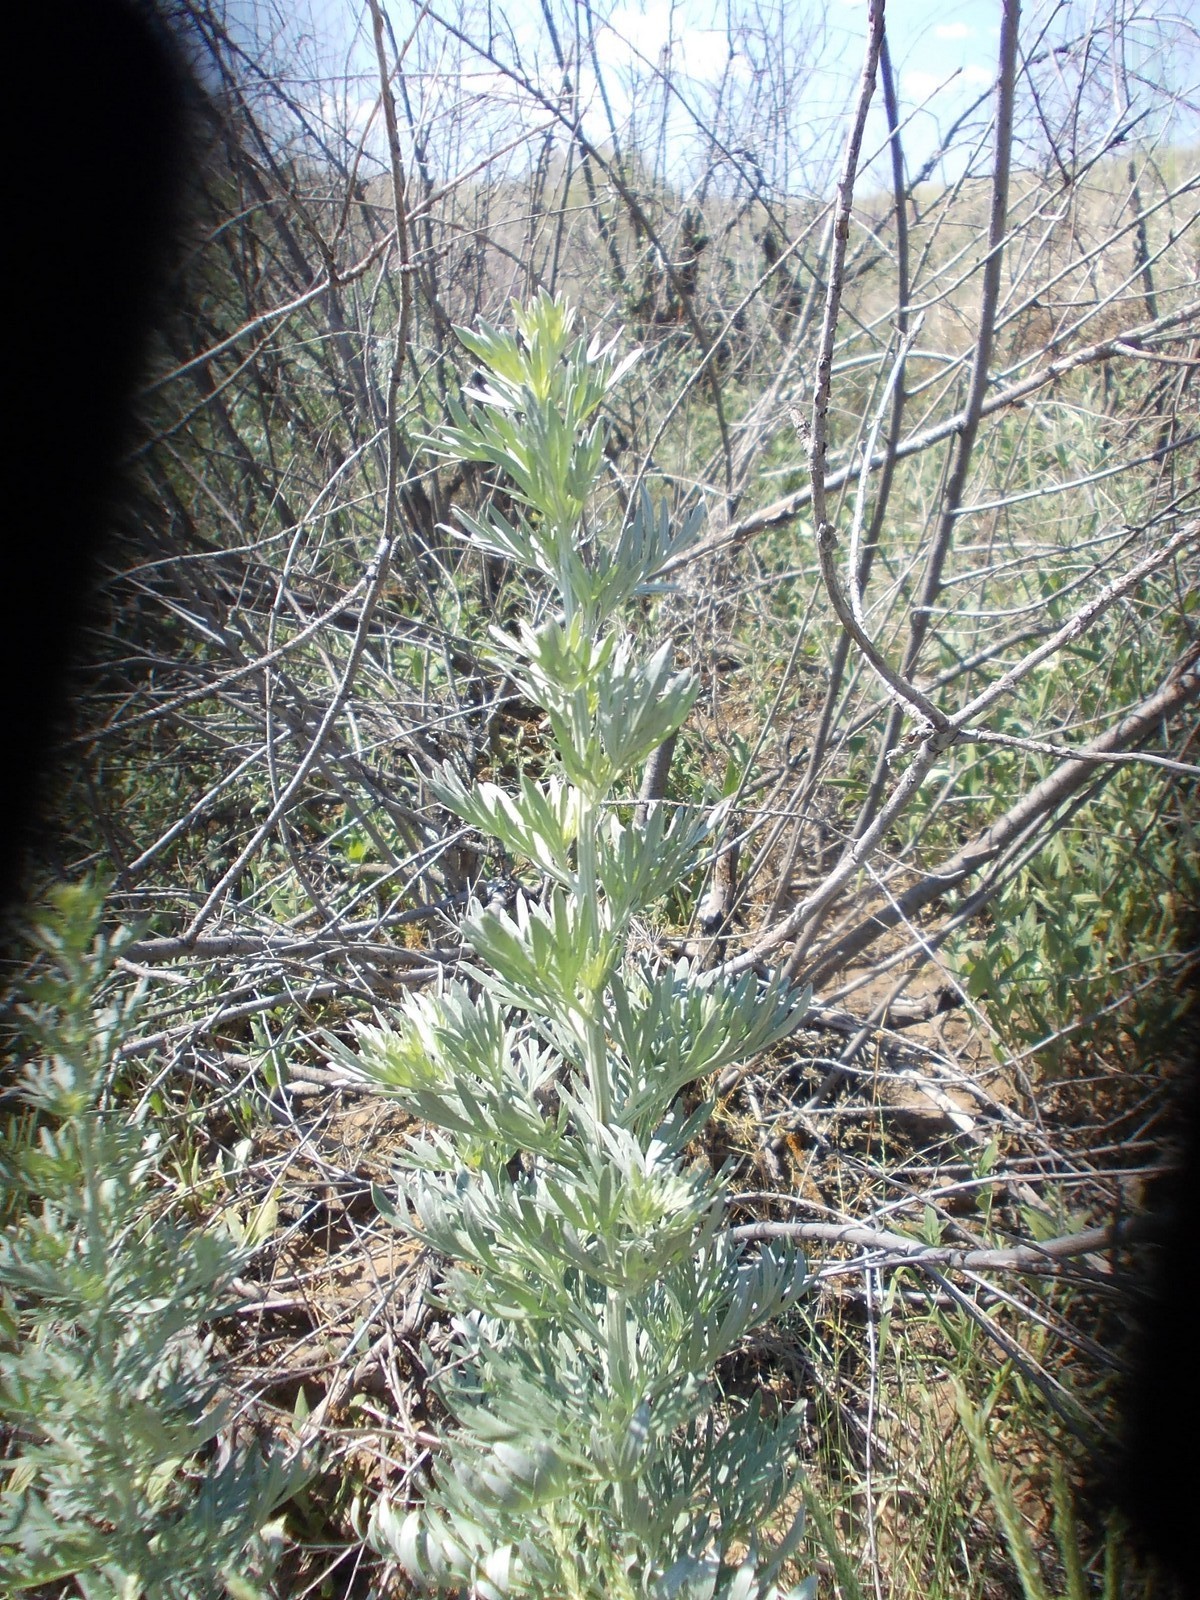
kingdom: Plantae
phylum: Tracheophyta
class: Magnoliopsida
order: Asterales
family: Asteraceae
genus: Artemisia
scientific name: Artemisia absinthium
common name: Wormwood
